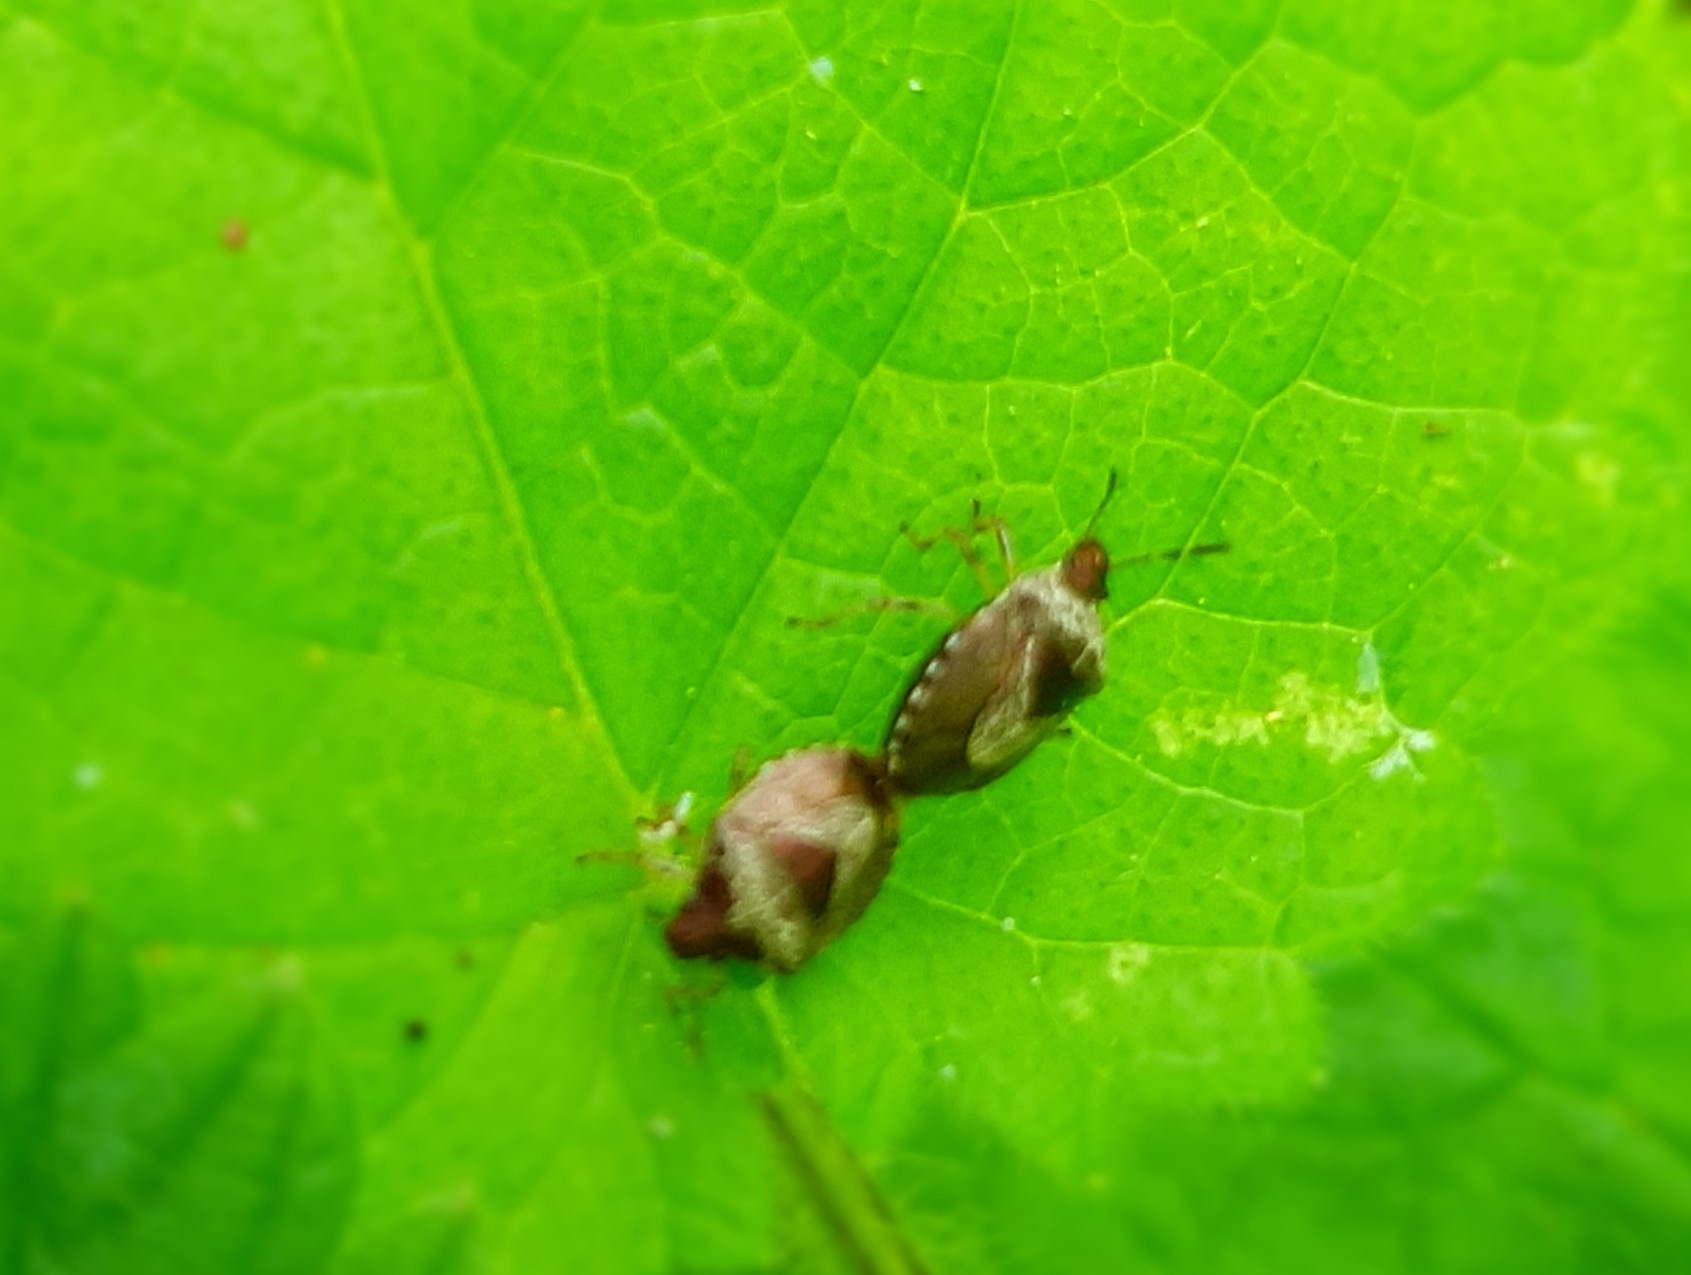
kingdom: Animalia
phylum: Arthropoda
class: Insecta
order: Hemiptera
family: Pentatomidae
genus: Eysarcoris
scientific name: Eysarcoris venustissimus
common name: Woundwort shieldbug
